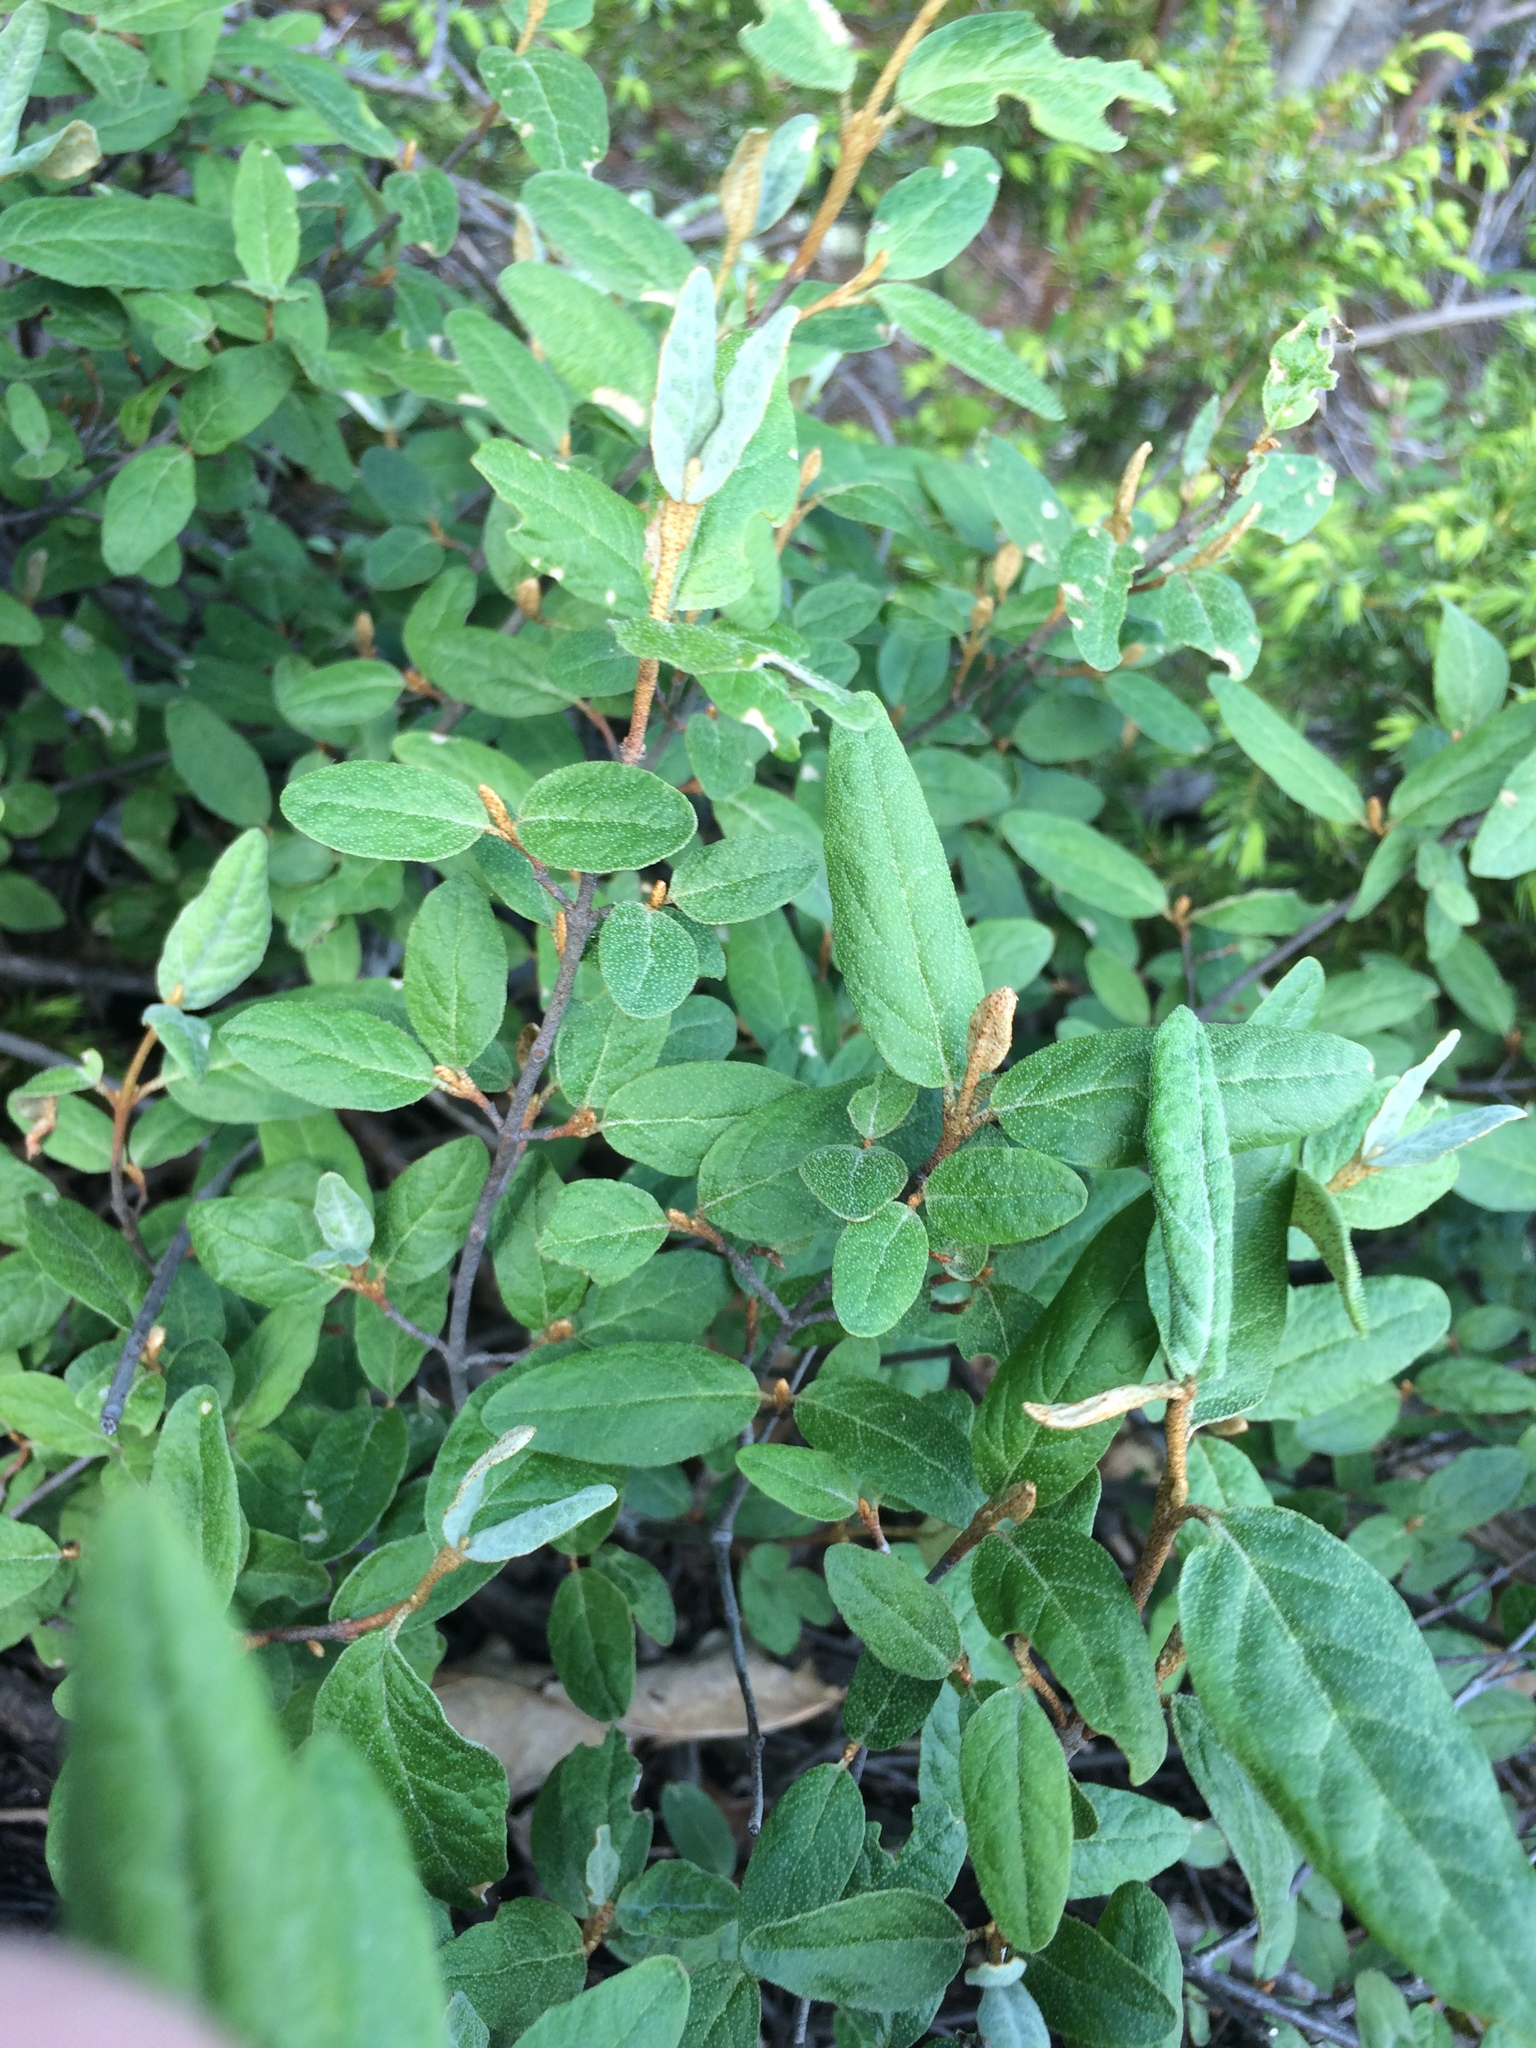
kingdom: Plantae
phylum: Tracheophyta
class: Magnoliopsida
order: Rosales
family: Elaeagnaceae
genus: Shepherdia
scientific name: Shepherdia canadensis
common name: Soapberry
